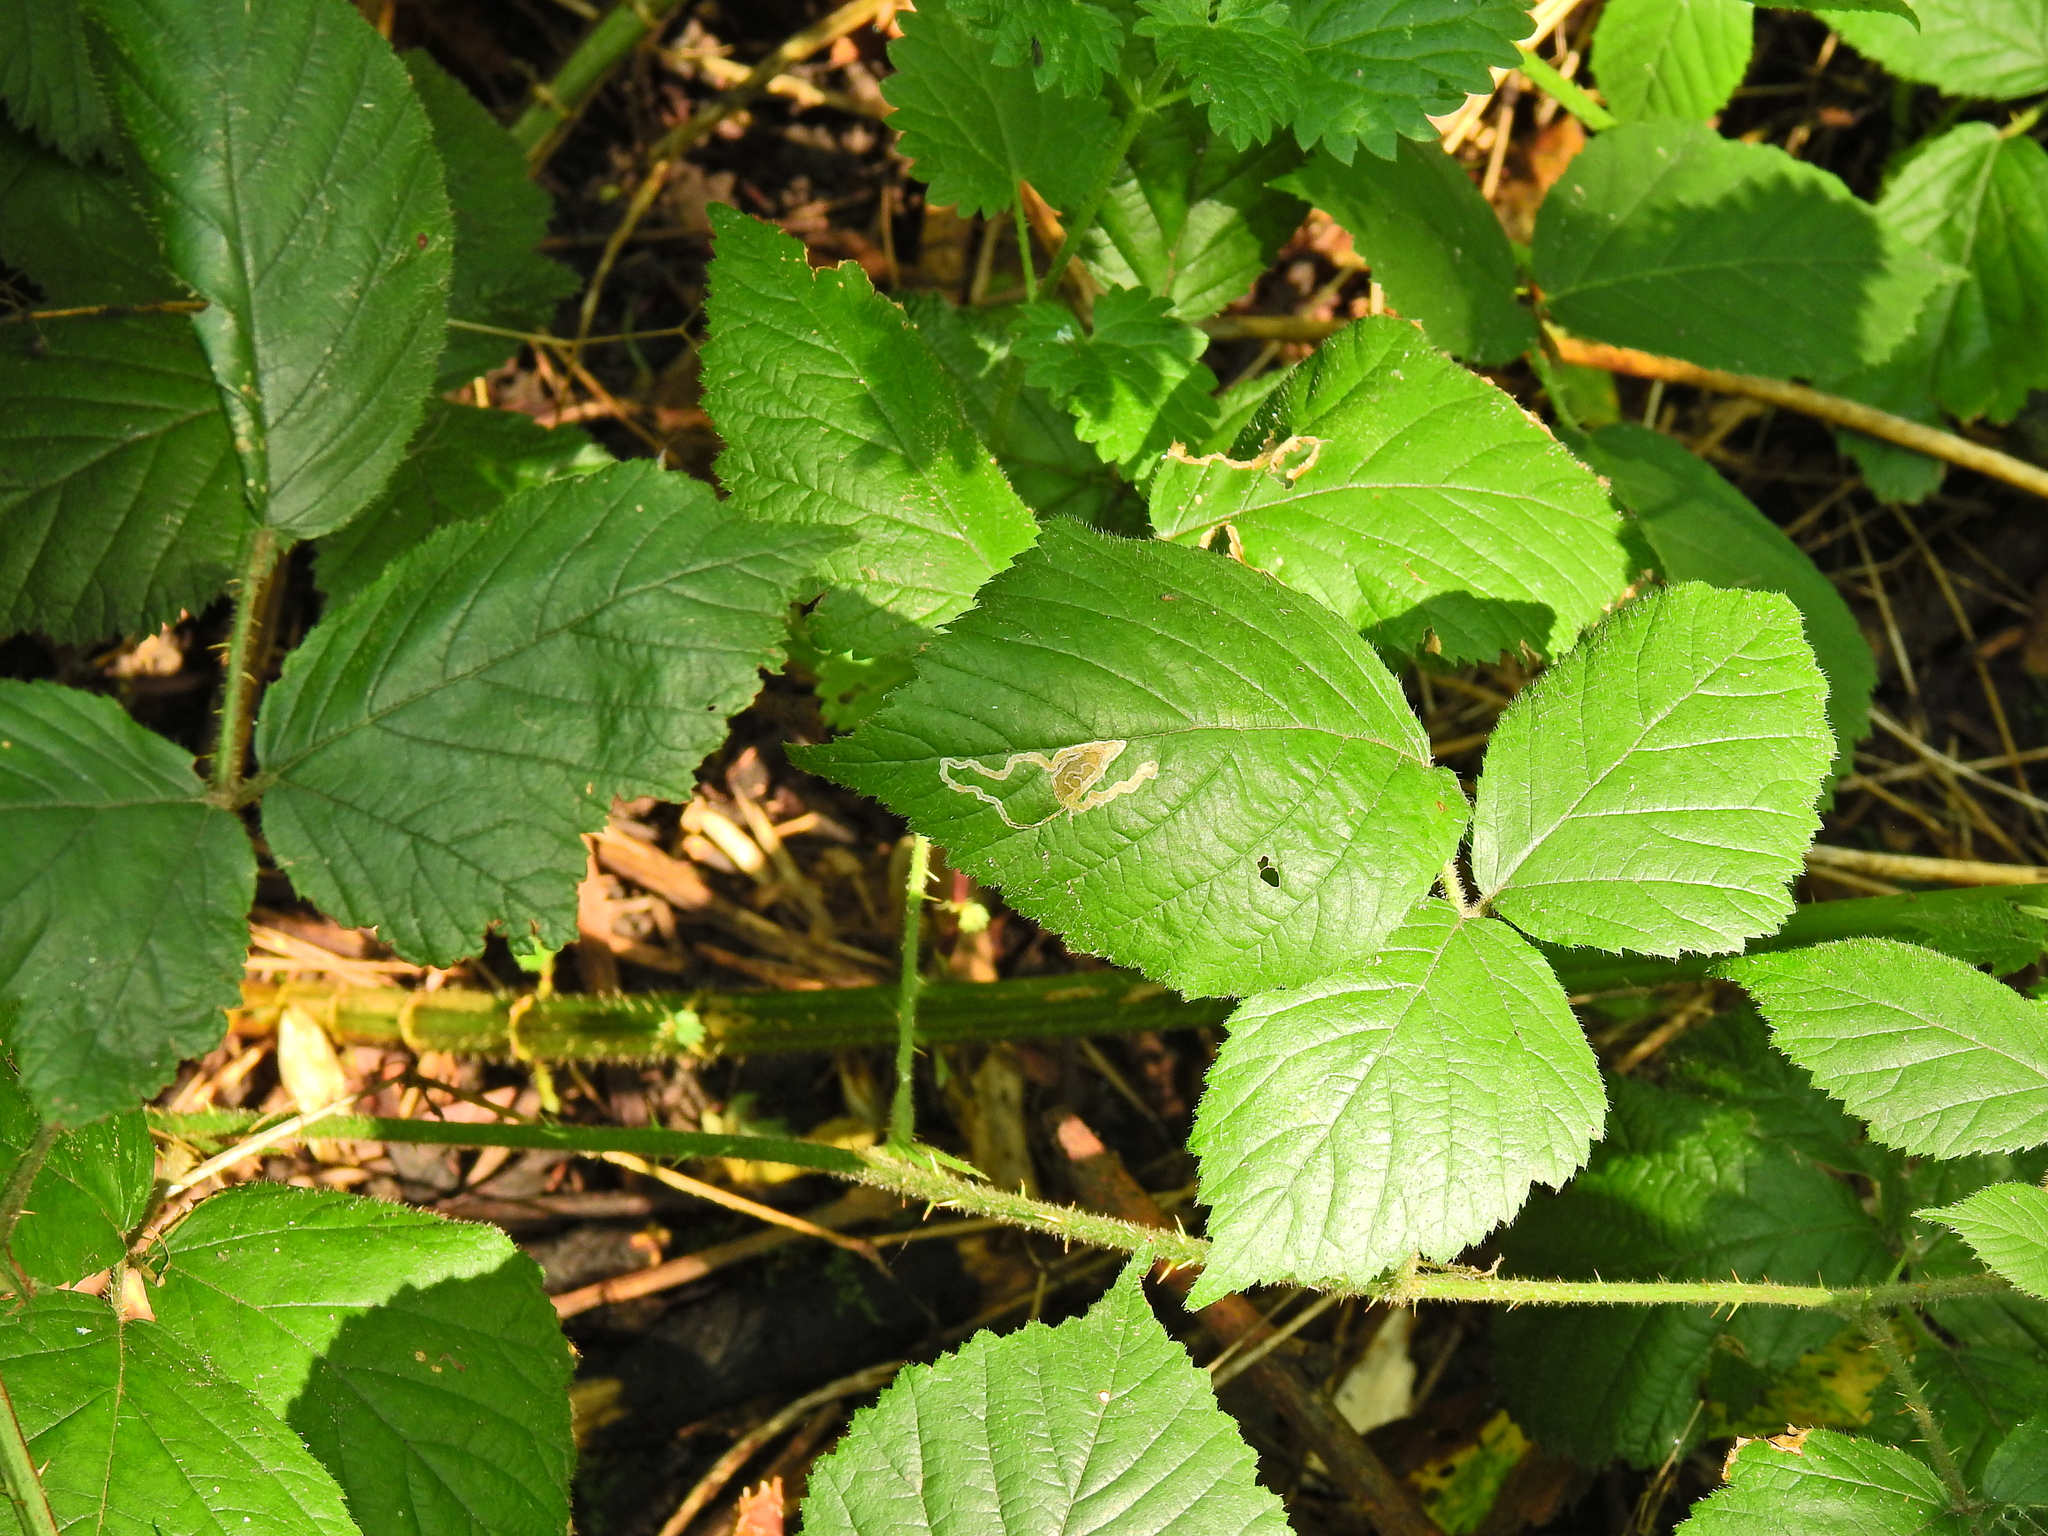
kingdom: Animalia
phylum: Arthropoda
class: Insecta
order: Lepidoptera
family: Nepticulidae
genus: Stigmella
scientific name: Stigmella aurella
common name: Golden pigmy
